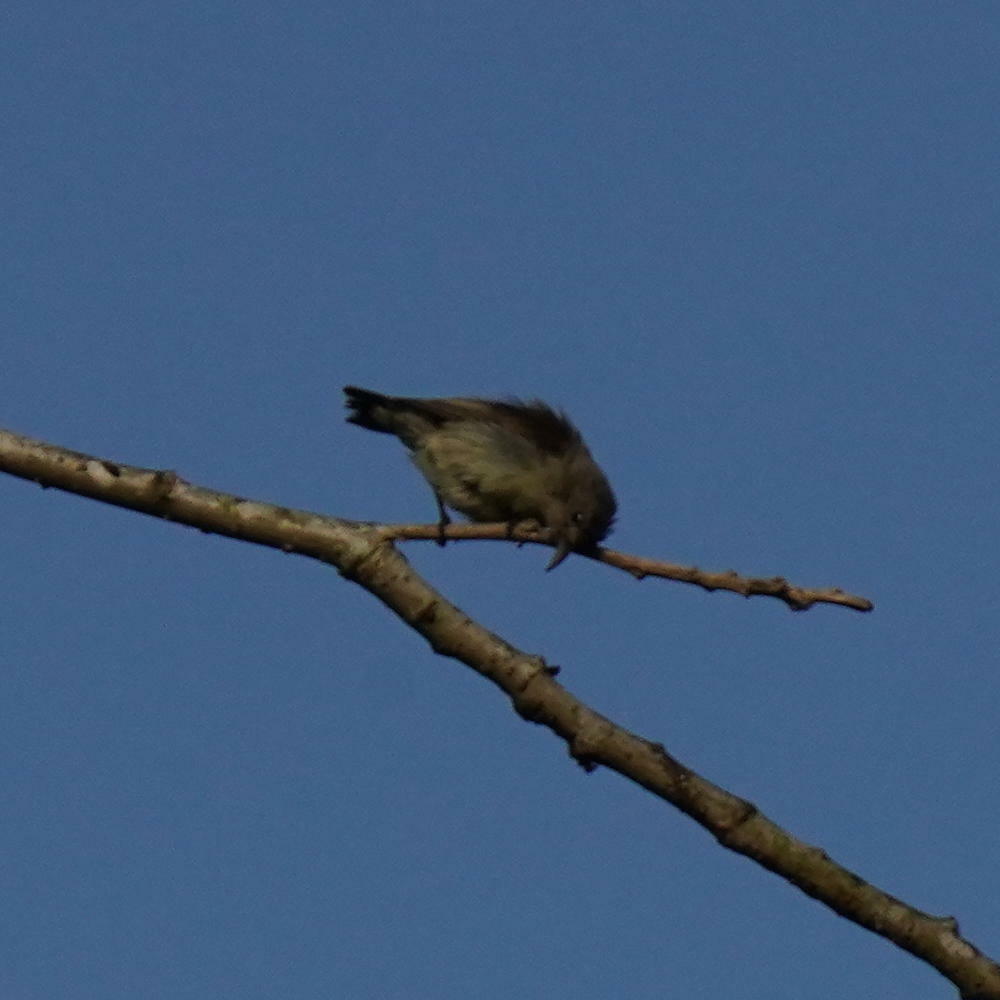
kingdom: Animalia
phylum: Chordata
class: Aves
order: Passeriformes
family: Dicaeidae
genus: Dicaeum
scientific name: Dicaeum concolor
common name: Nilgiri flowerpecker
